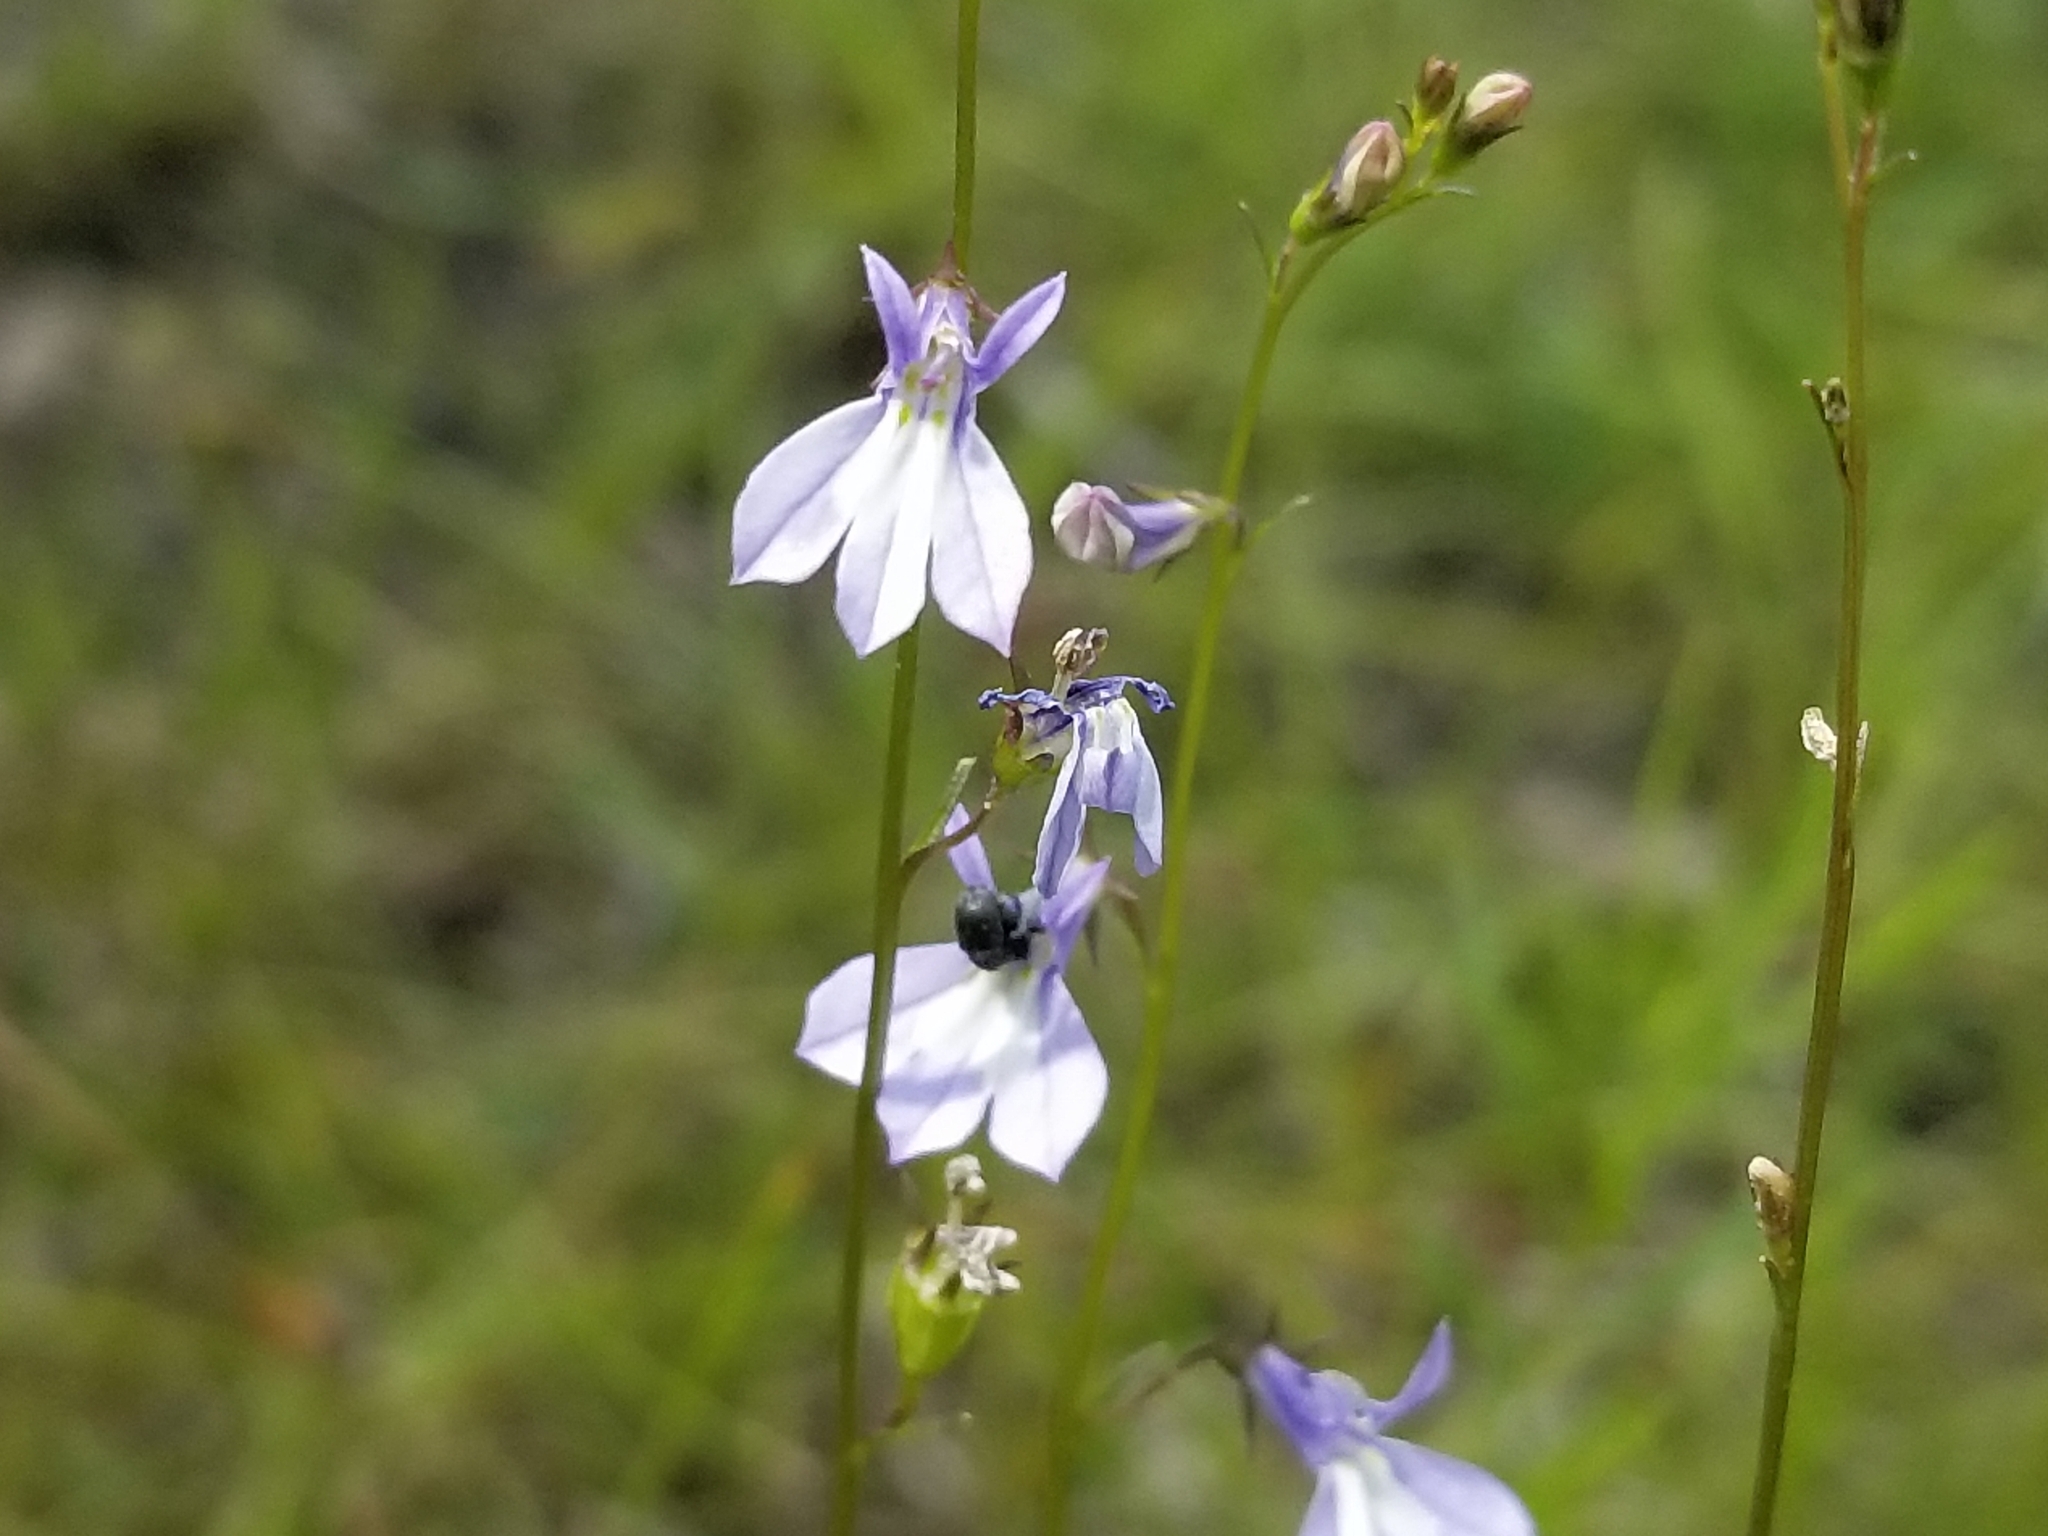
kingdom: Plantae
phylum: Tracheophyta
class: Magnoliopsida
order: Asterales
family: Campanulaceae
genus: Lobelia
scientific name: Lobelia kalmii
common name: Kalm's lobelia
